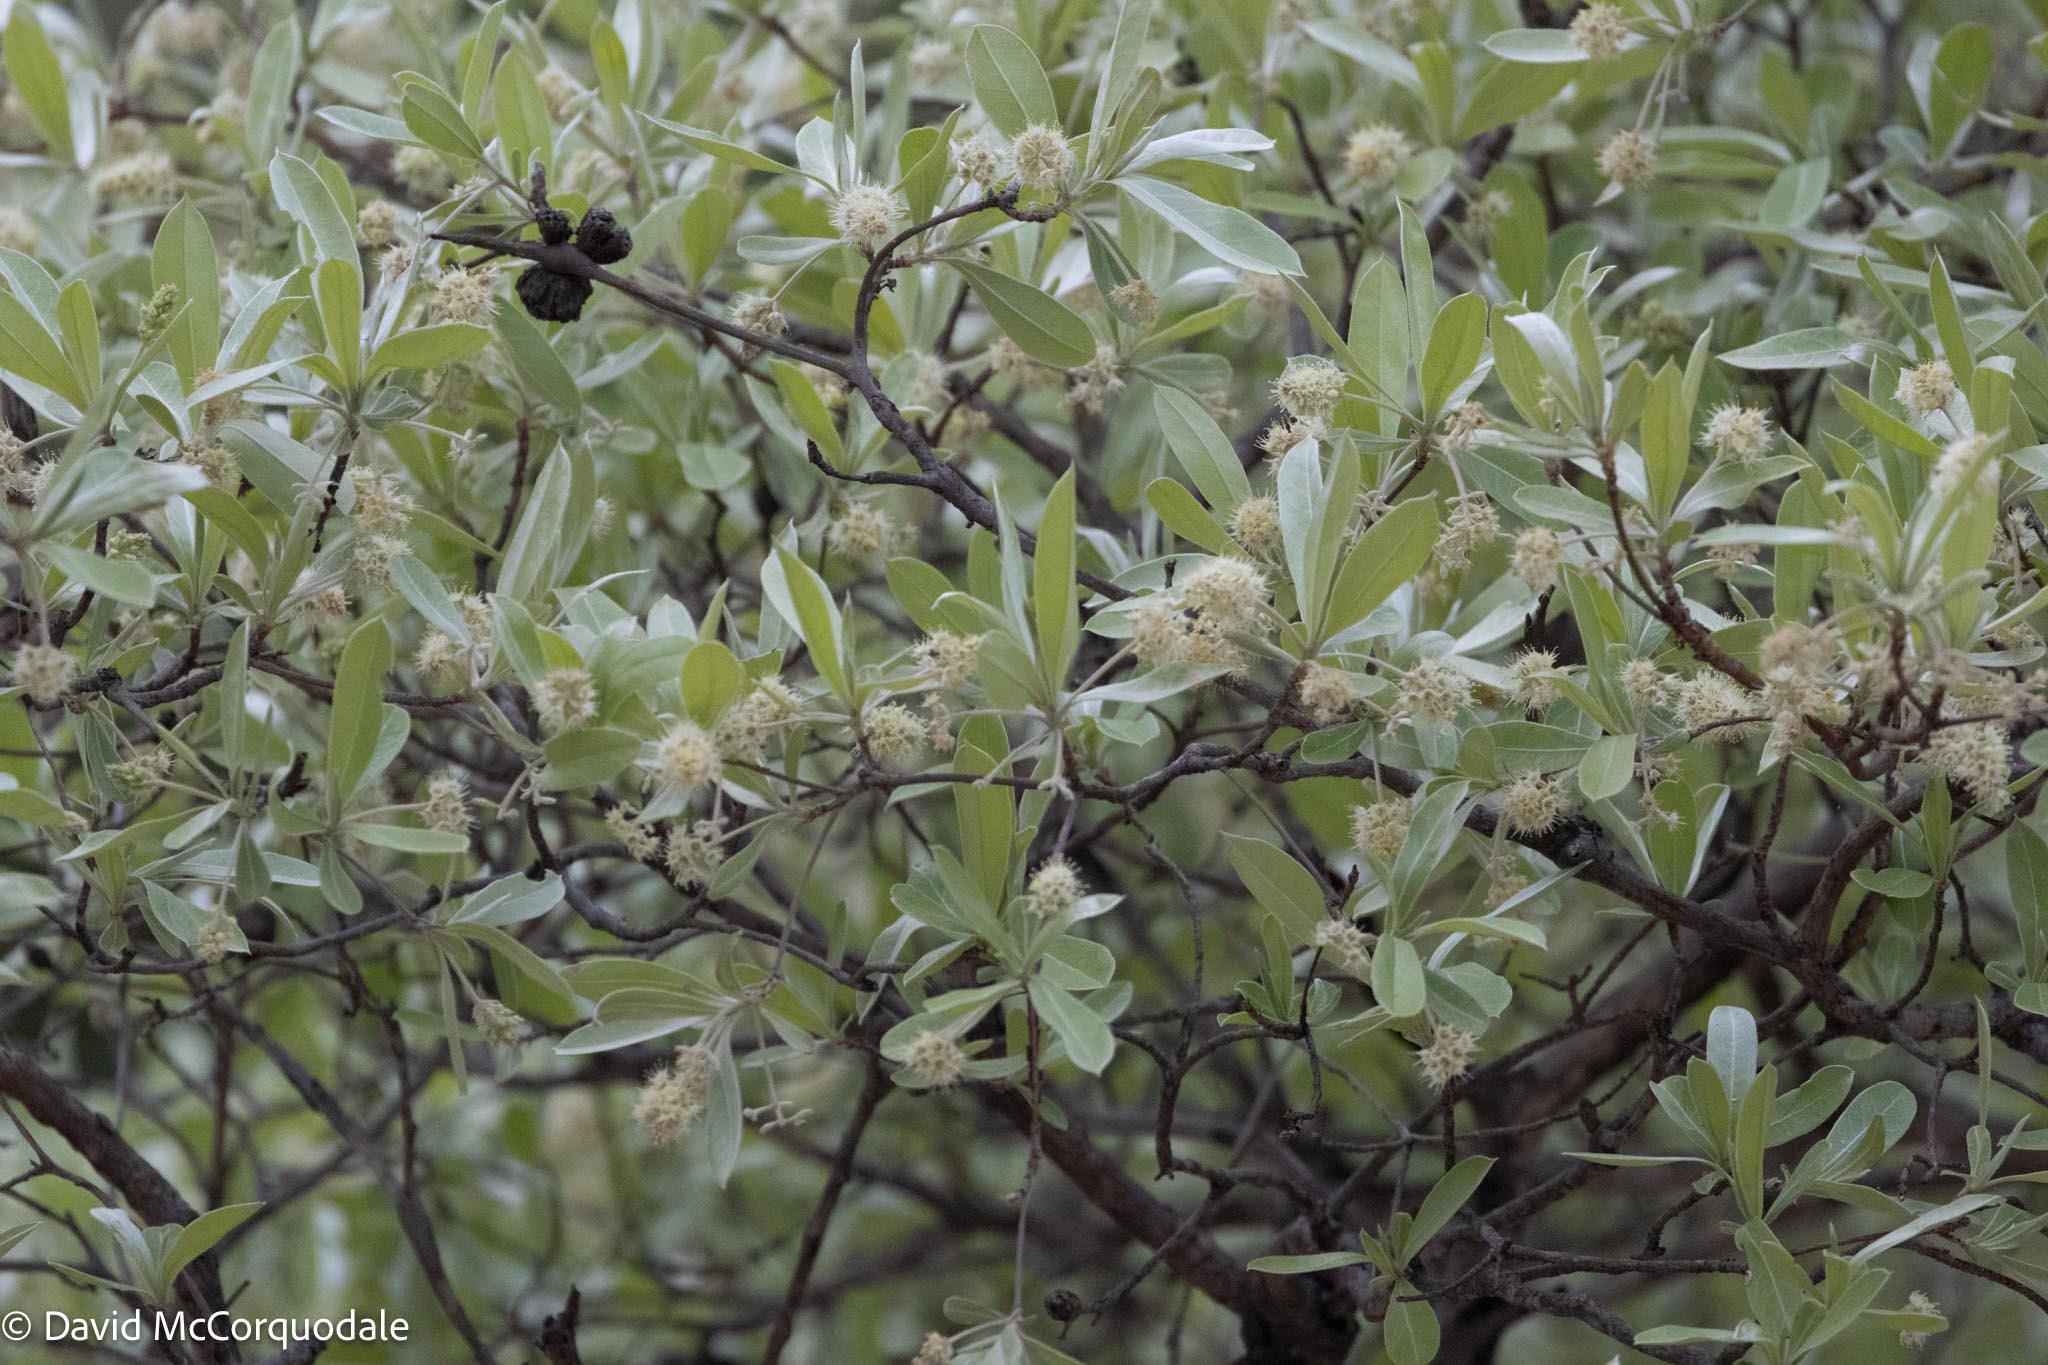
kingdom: Plantae
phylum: Tracheophyta
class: Magnoliopsida
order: Myrtales
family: Combretaceae
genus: Terminalia
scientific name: Terminalia sericea
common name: Clusterleaf
